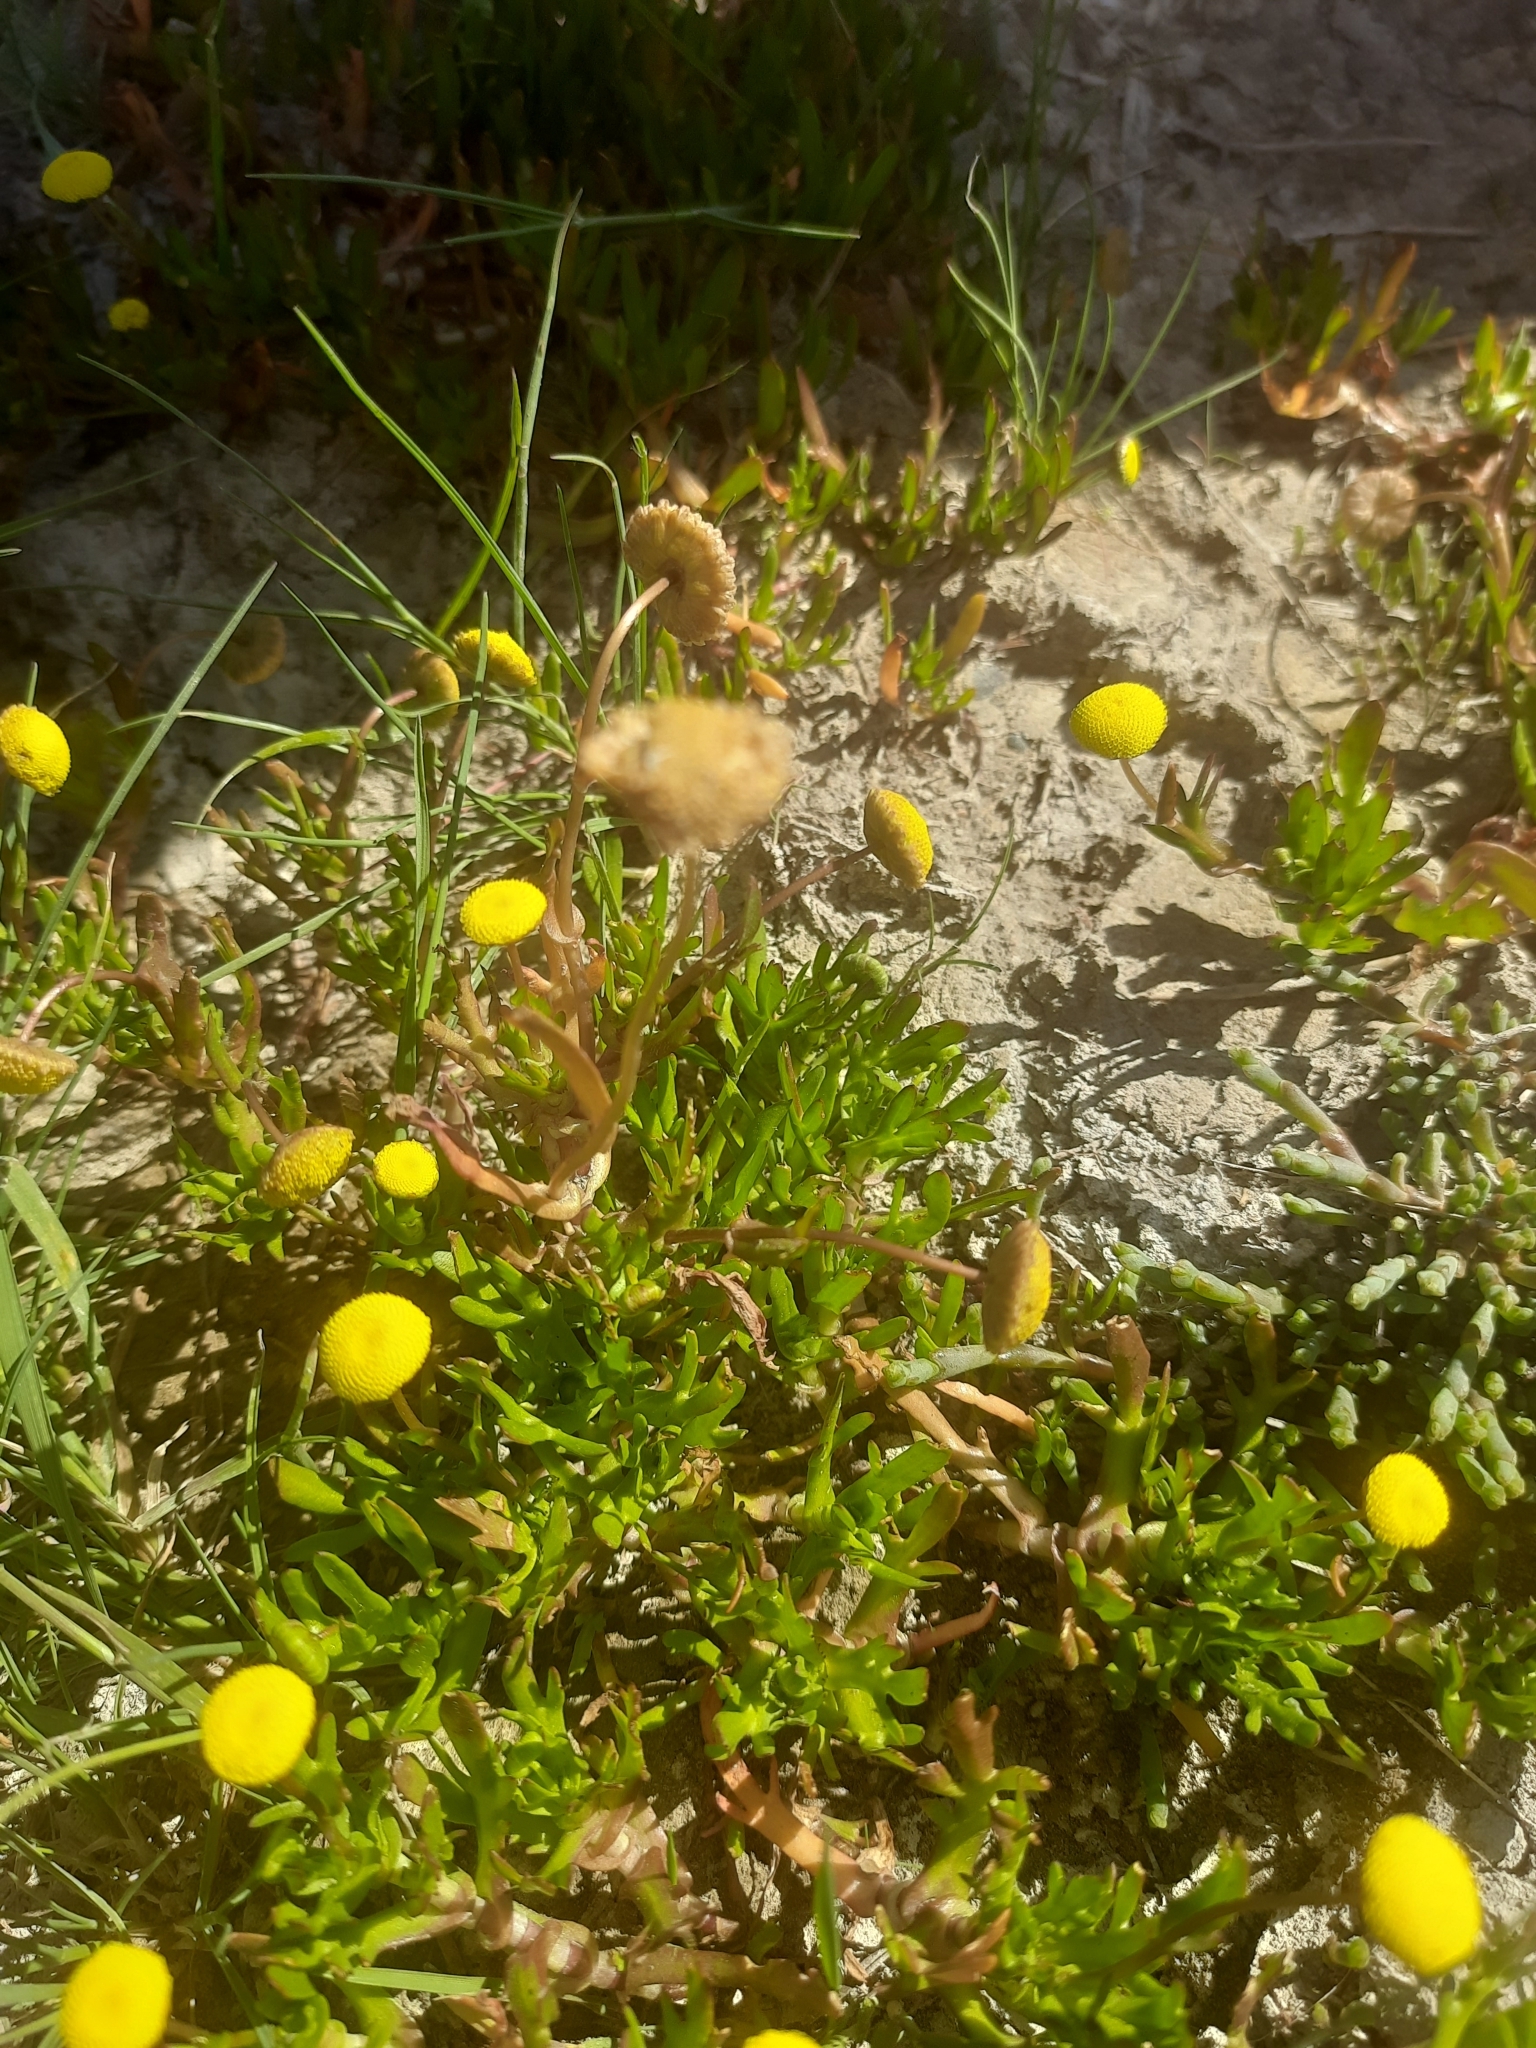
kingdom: Plantae
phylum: Tracheophyta
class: Magnoliopsida
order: Asterales
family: Asteraceae
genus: Cotula
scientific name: Cotula coronopifolia
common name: Buttonweed
